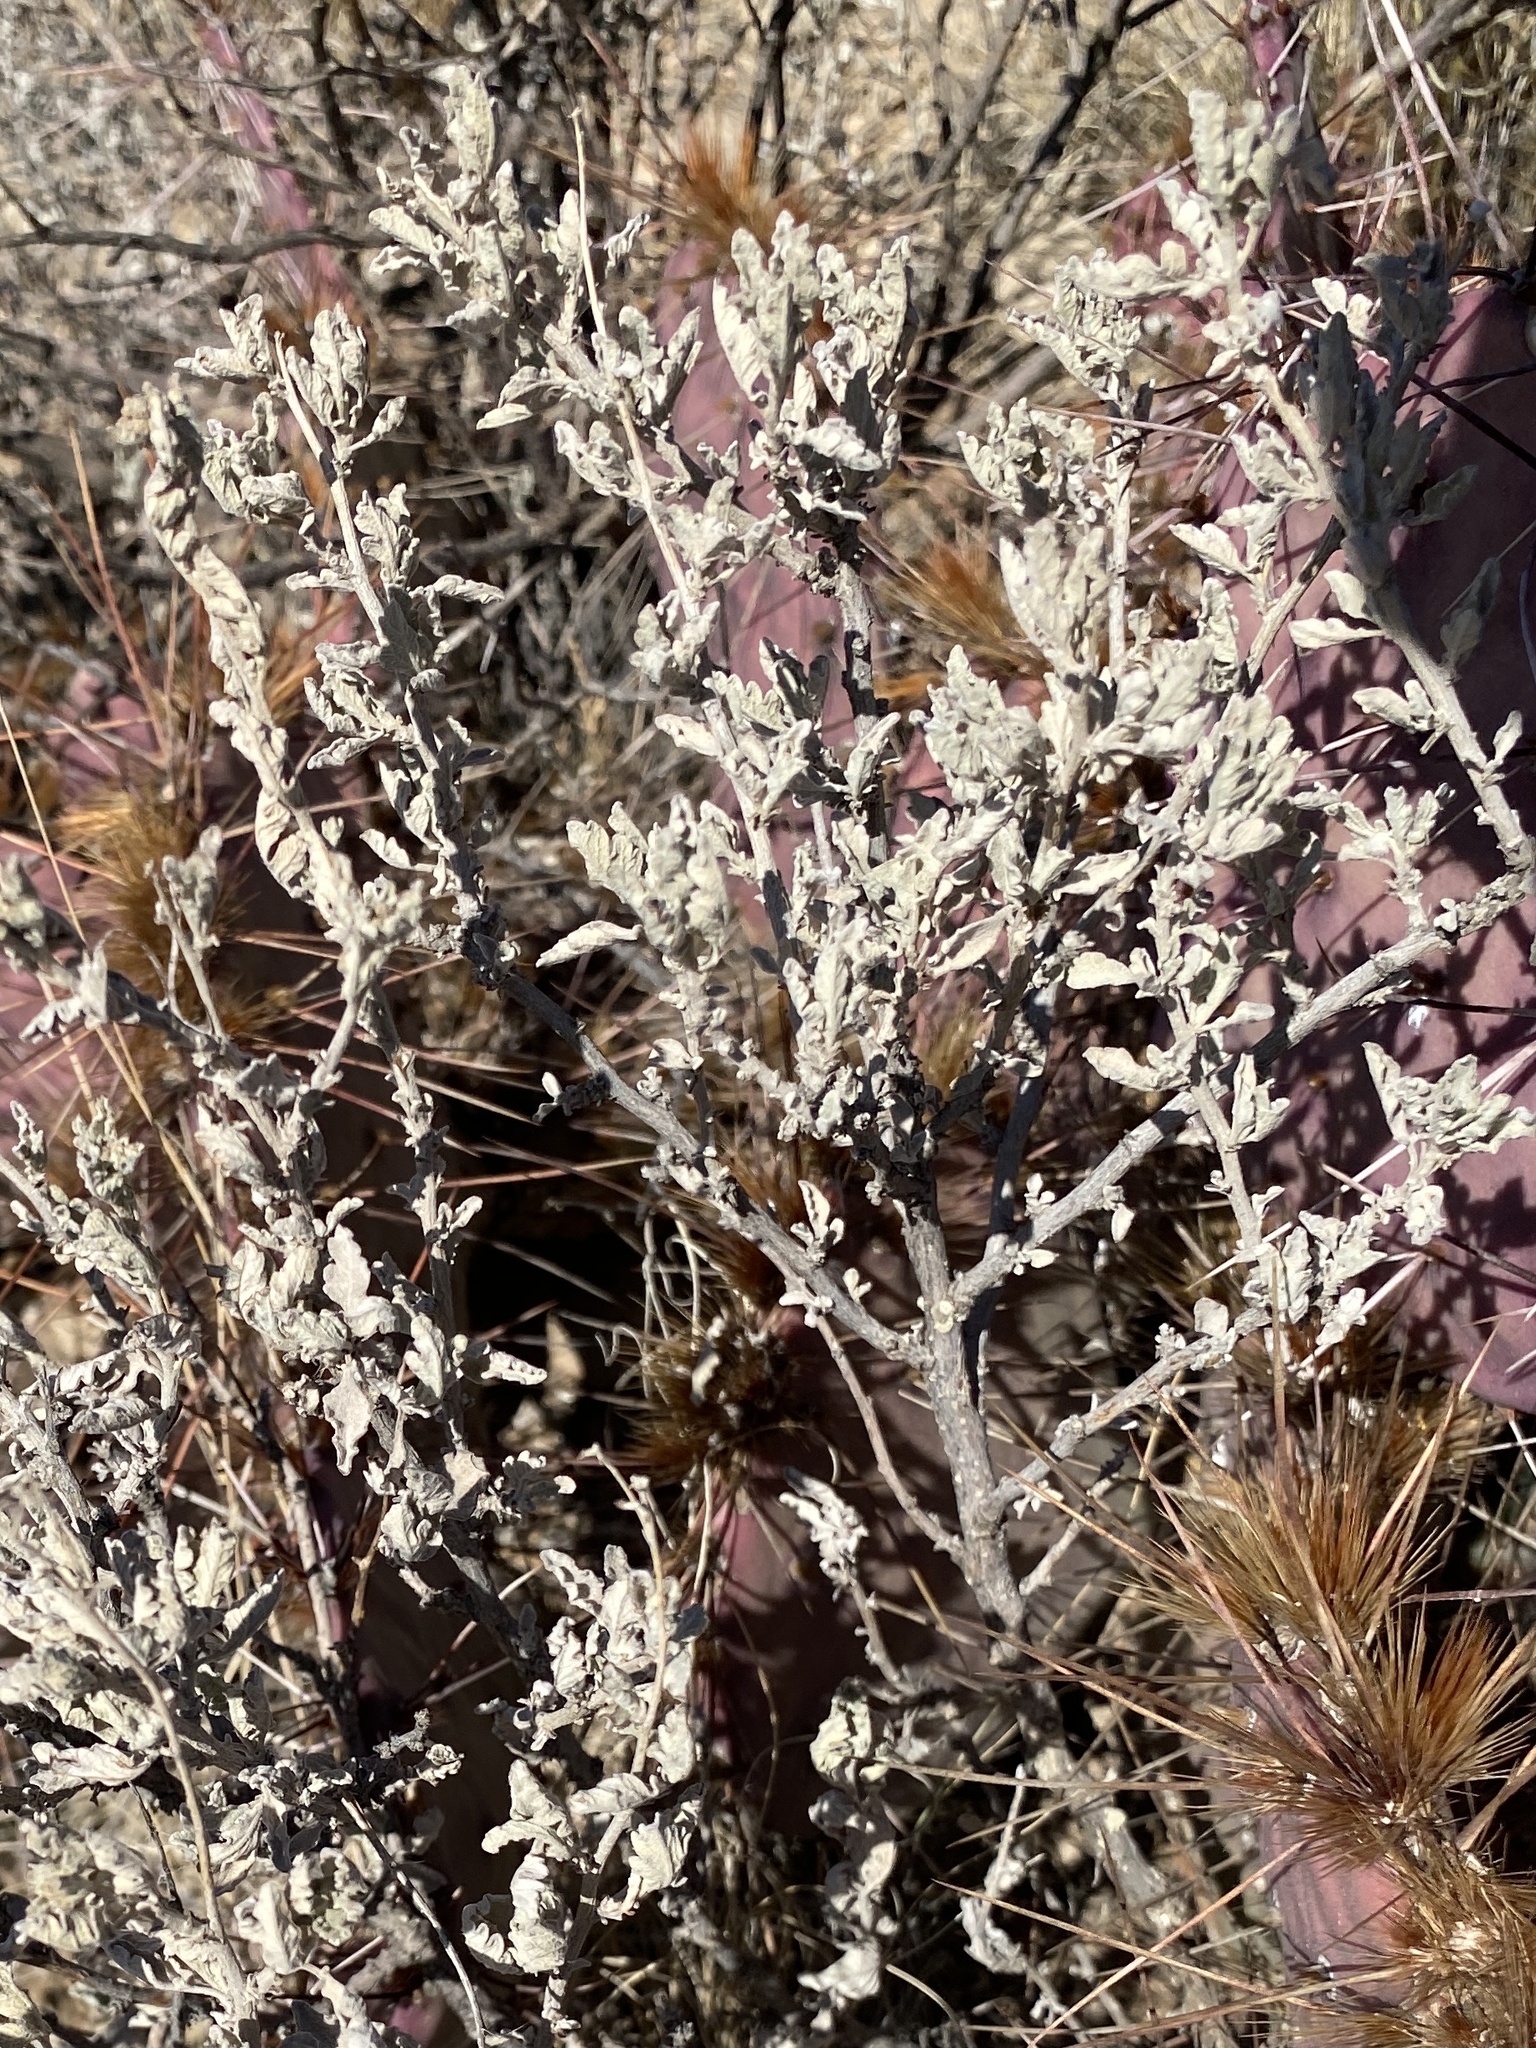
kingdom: Plantae
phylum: Tracheophyta
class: Magnoliopsida
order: Asterales
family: Asteraceae
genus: Parthenium
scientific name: Parthenium incanum
